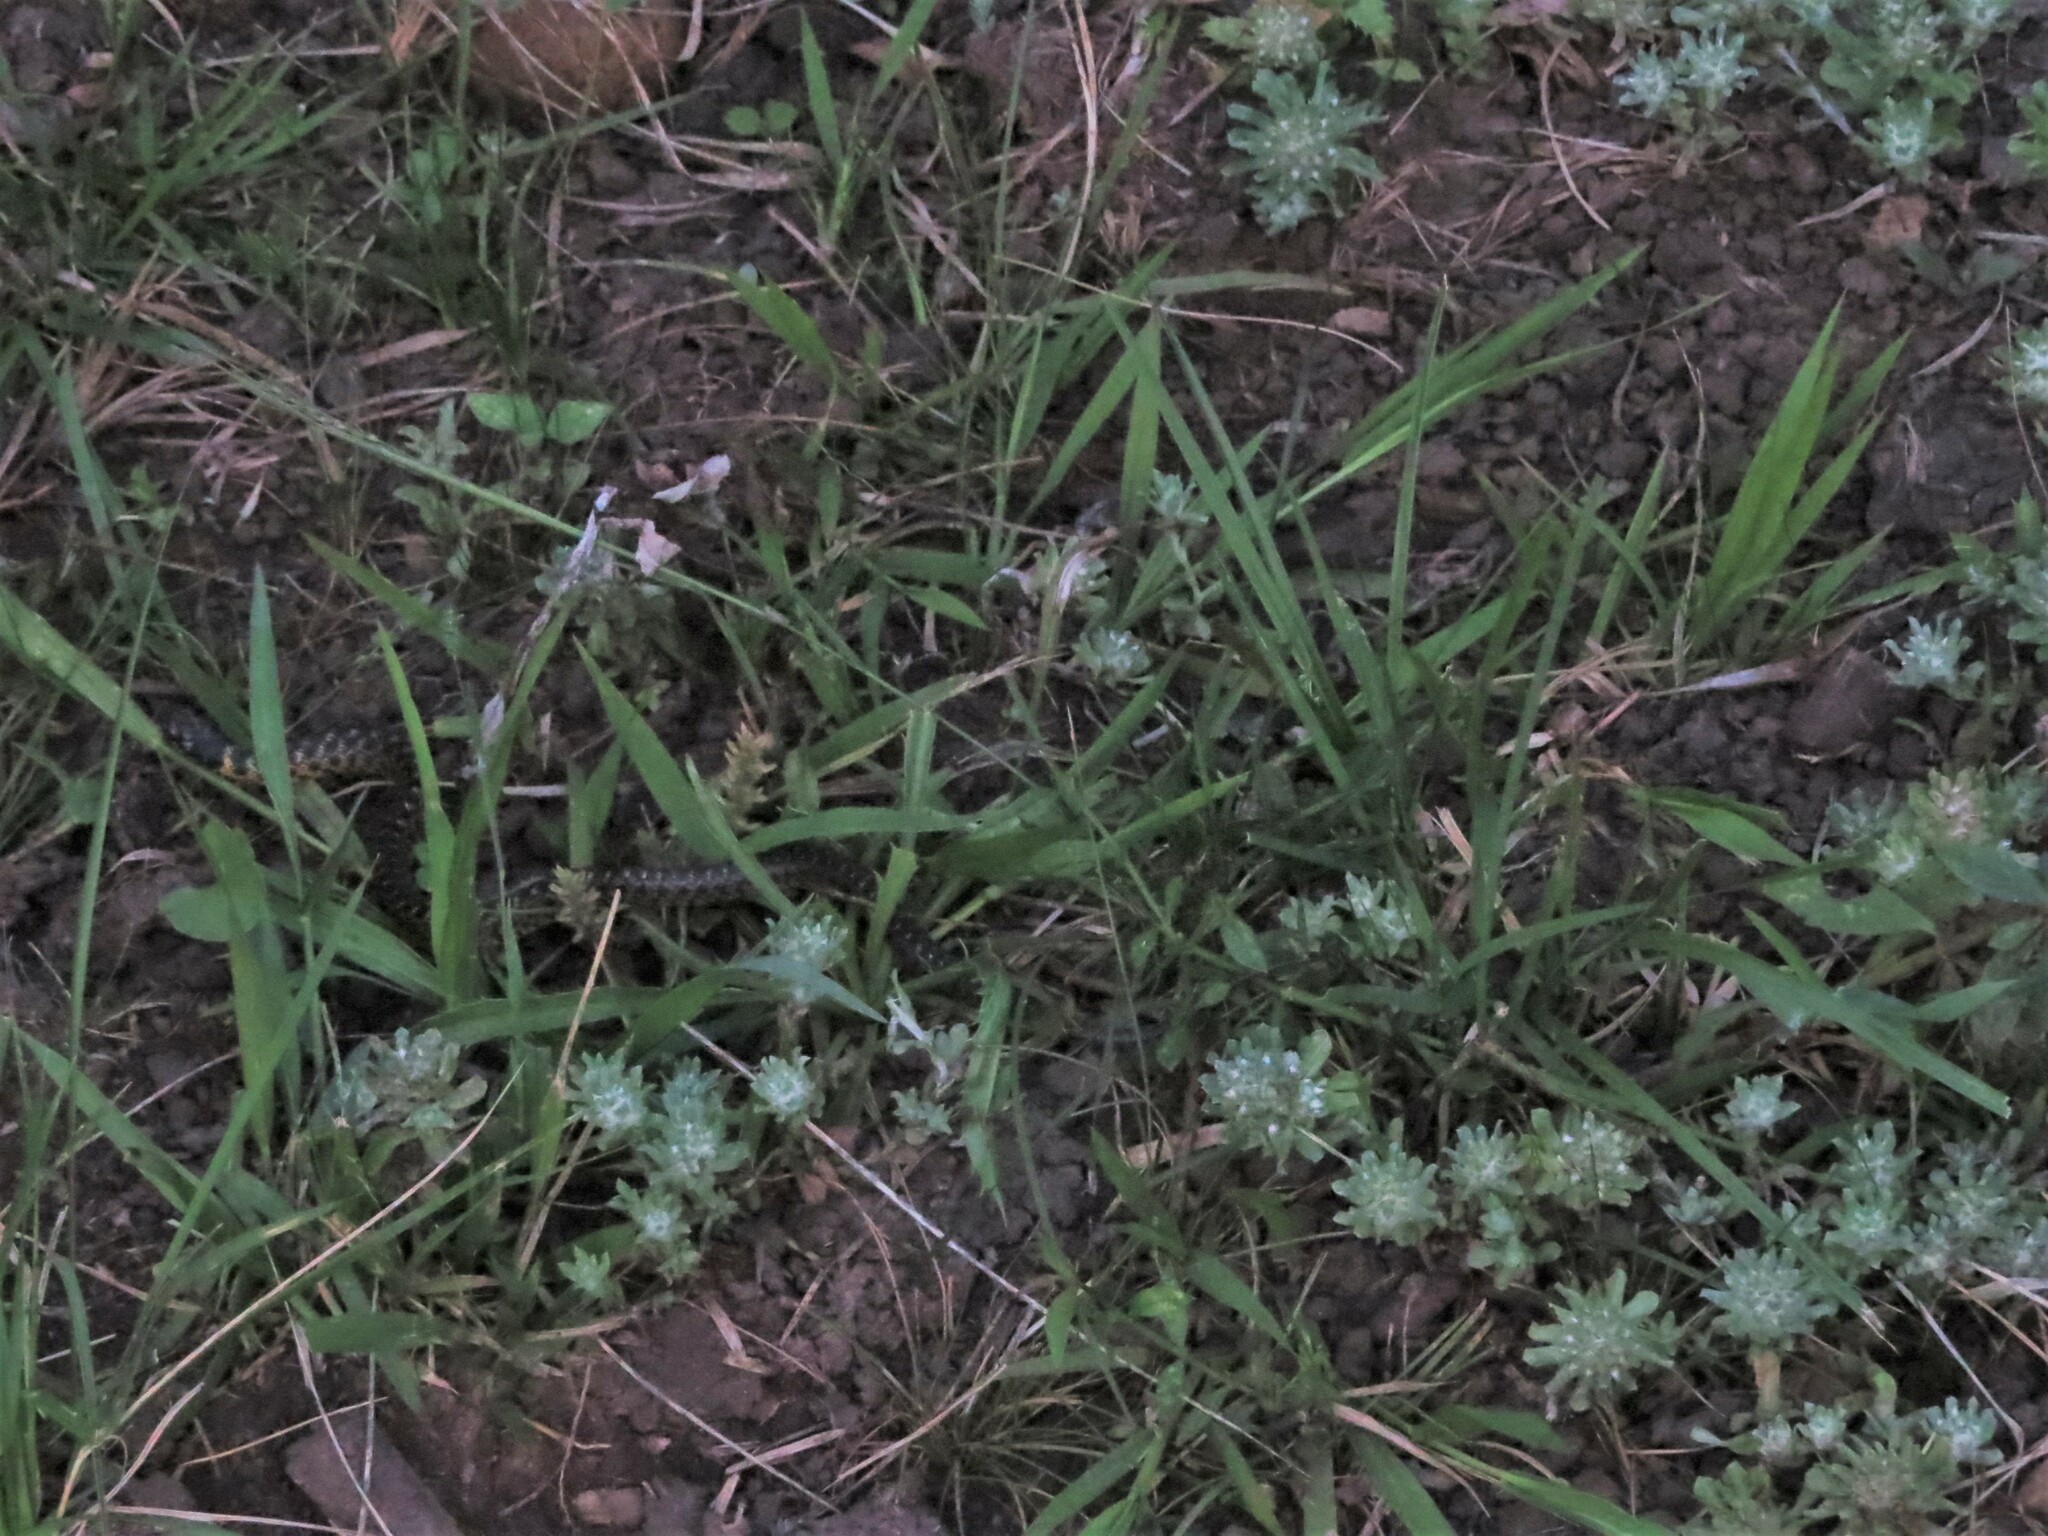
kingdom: Animalia
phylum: Chordata
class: Squamata
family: Colubridae
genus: Erythrolamprus
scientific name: Erythrolamprus poecilogyrus
